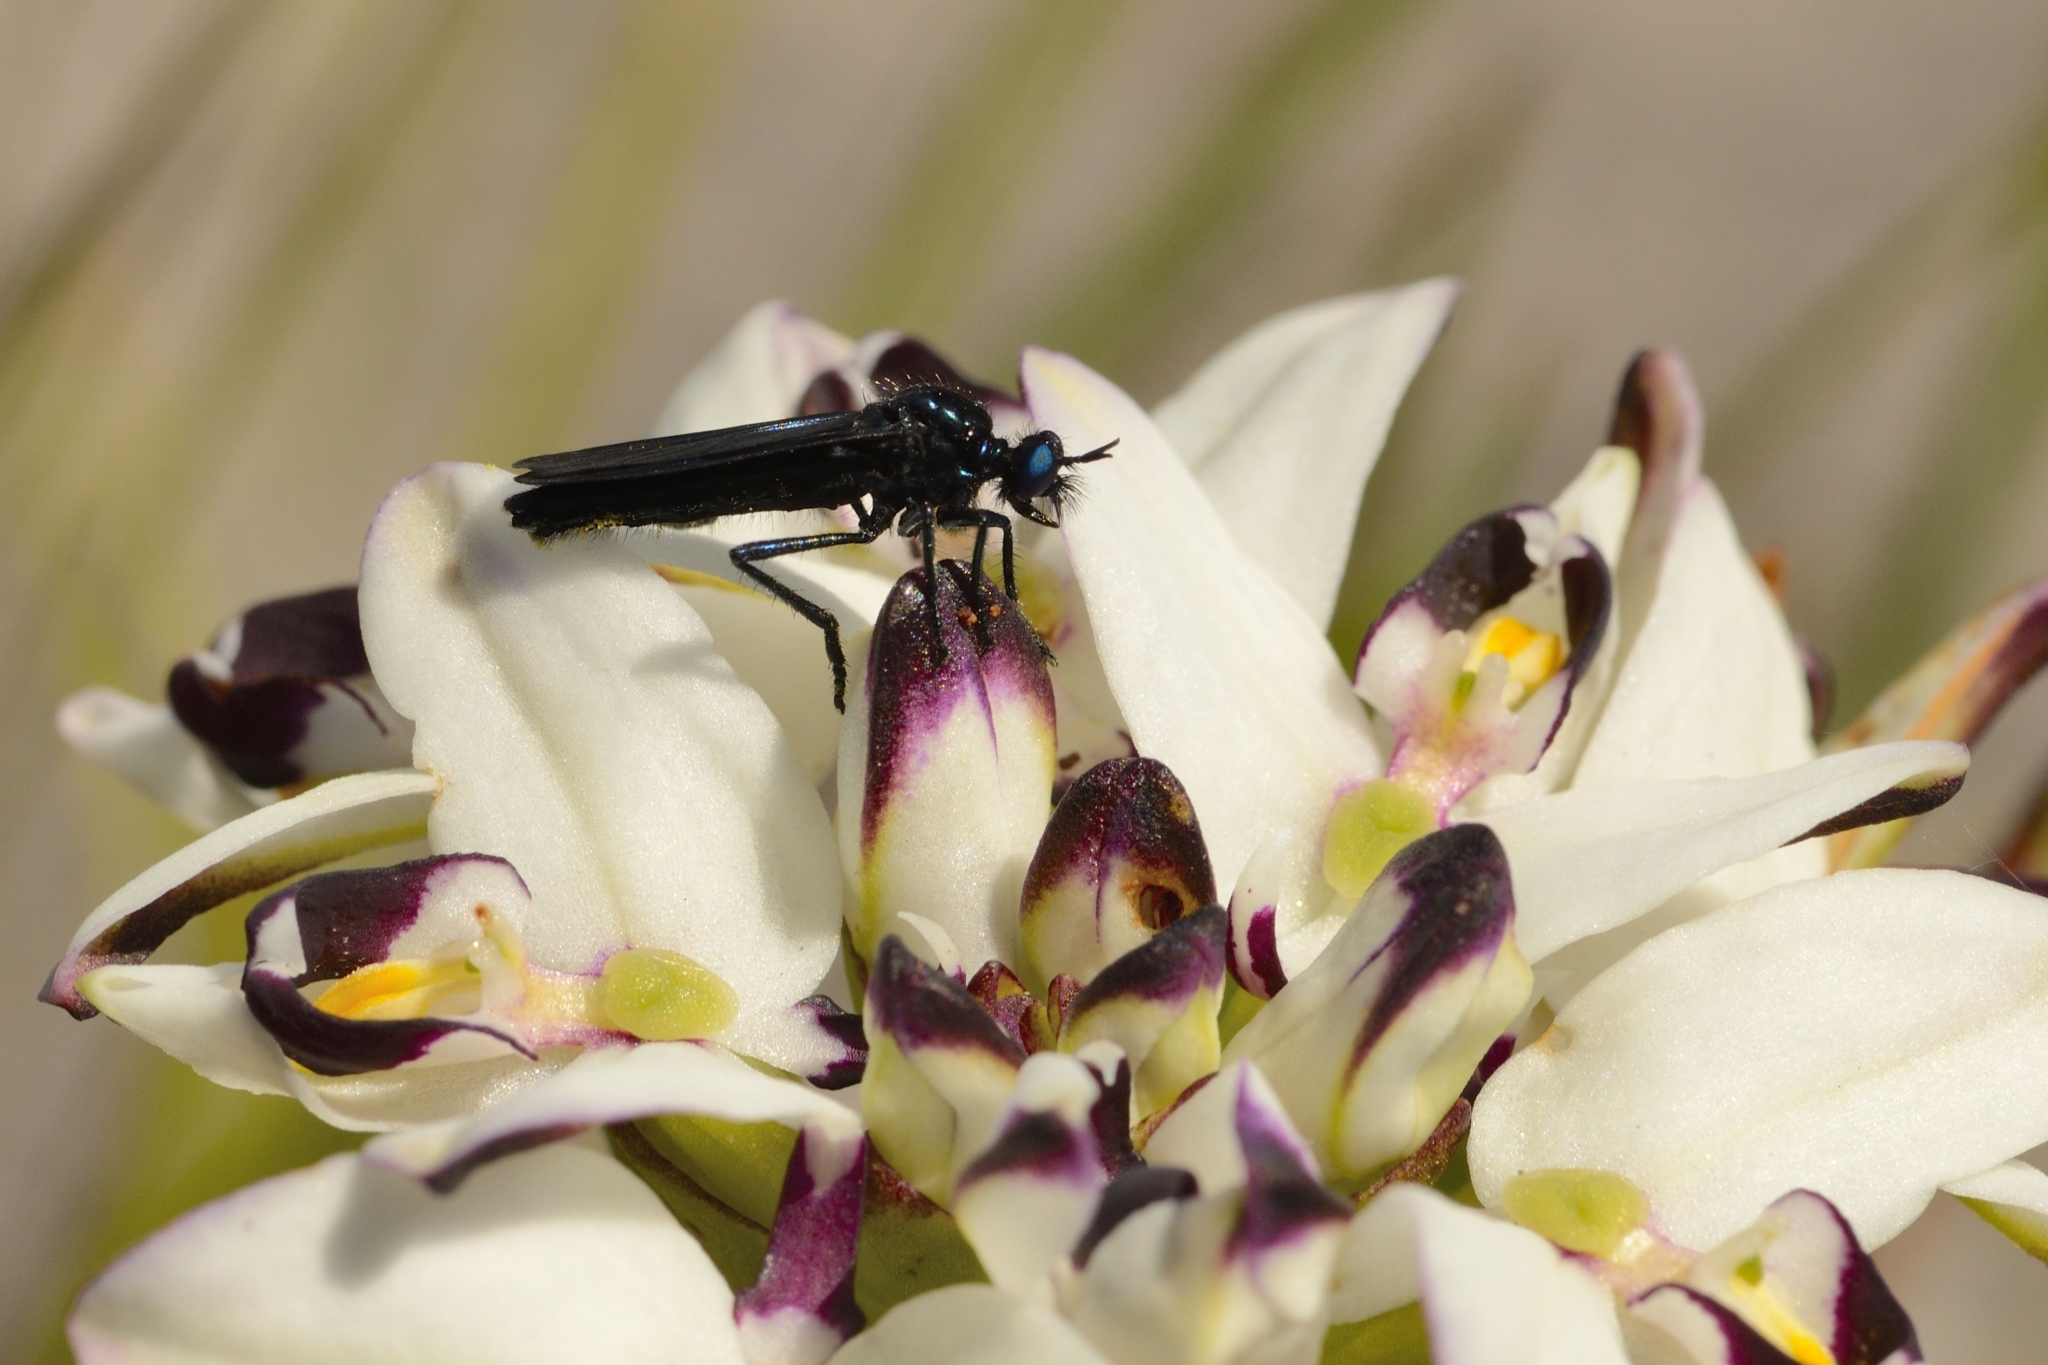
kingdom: Animalia
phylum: Arthropoda
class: Insecta
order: Diptera
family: Asilidae
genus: Teratopomyia
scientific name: Teratopomyia cyanea
